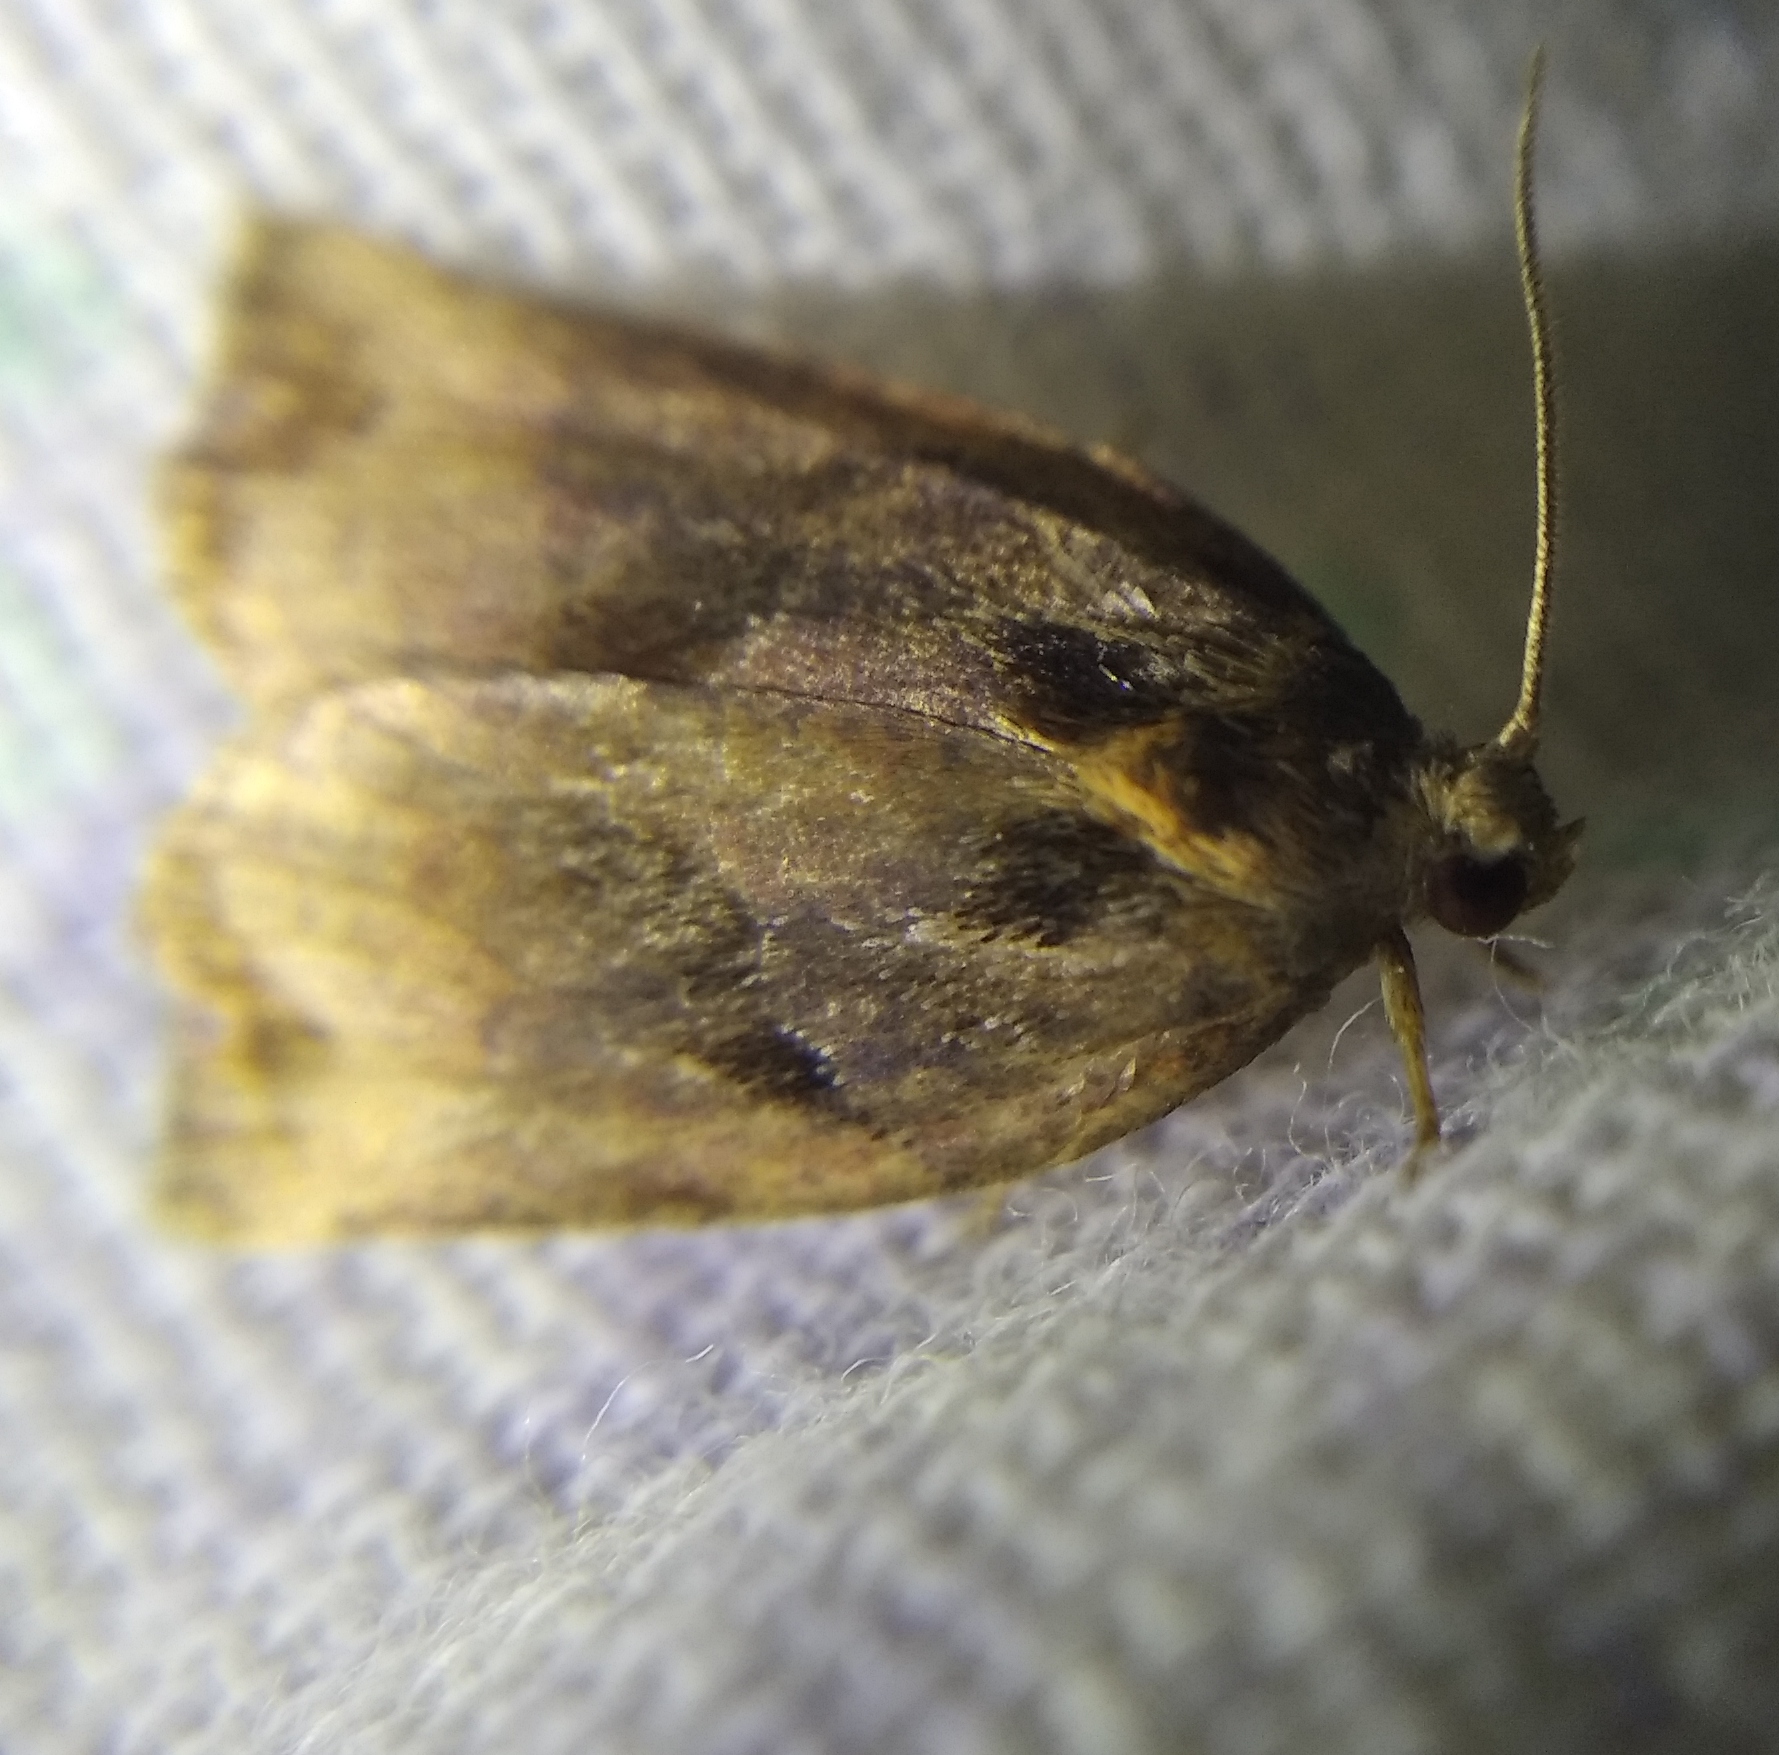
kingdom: Animalia
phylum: Arthropoda
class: Insecta
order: Lepidoptera
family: Tortricidae
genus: Archips
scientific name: Archips podana
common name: Large fruit-tree tortrix
